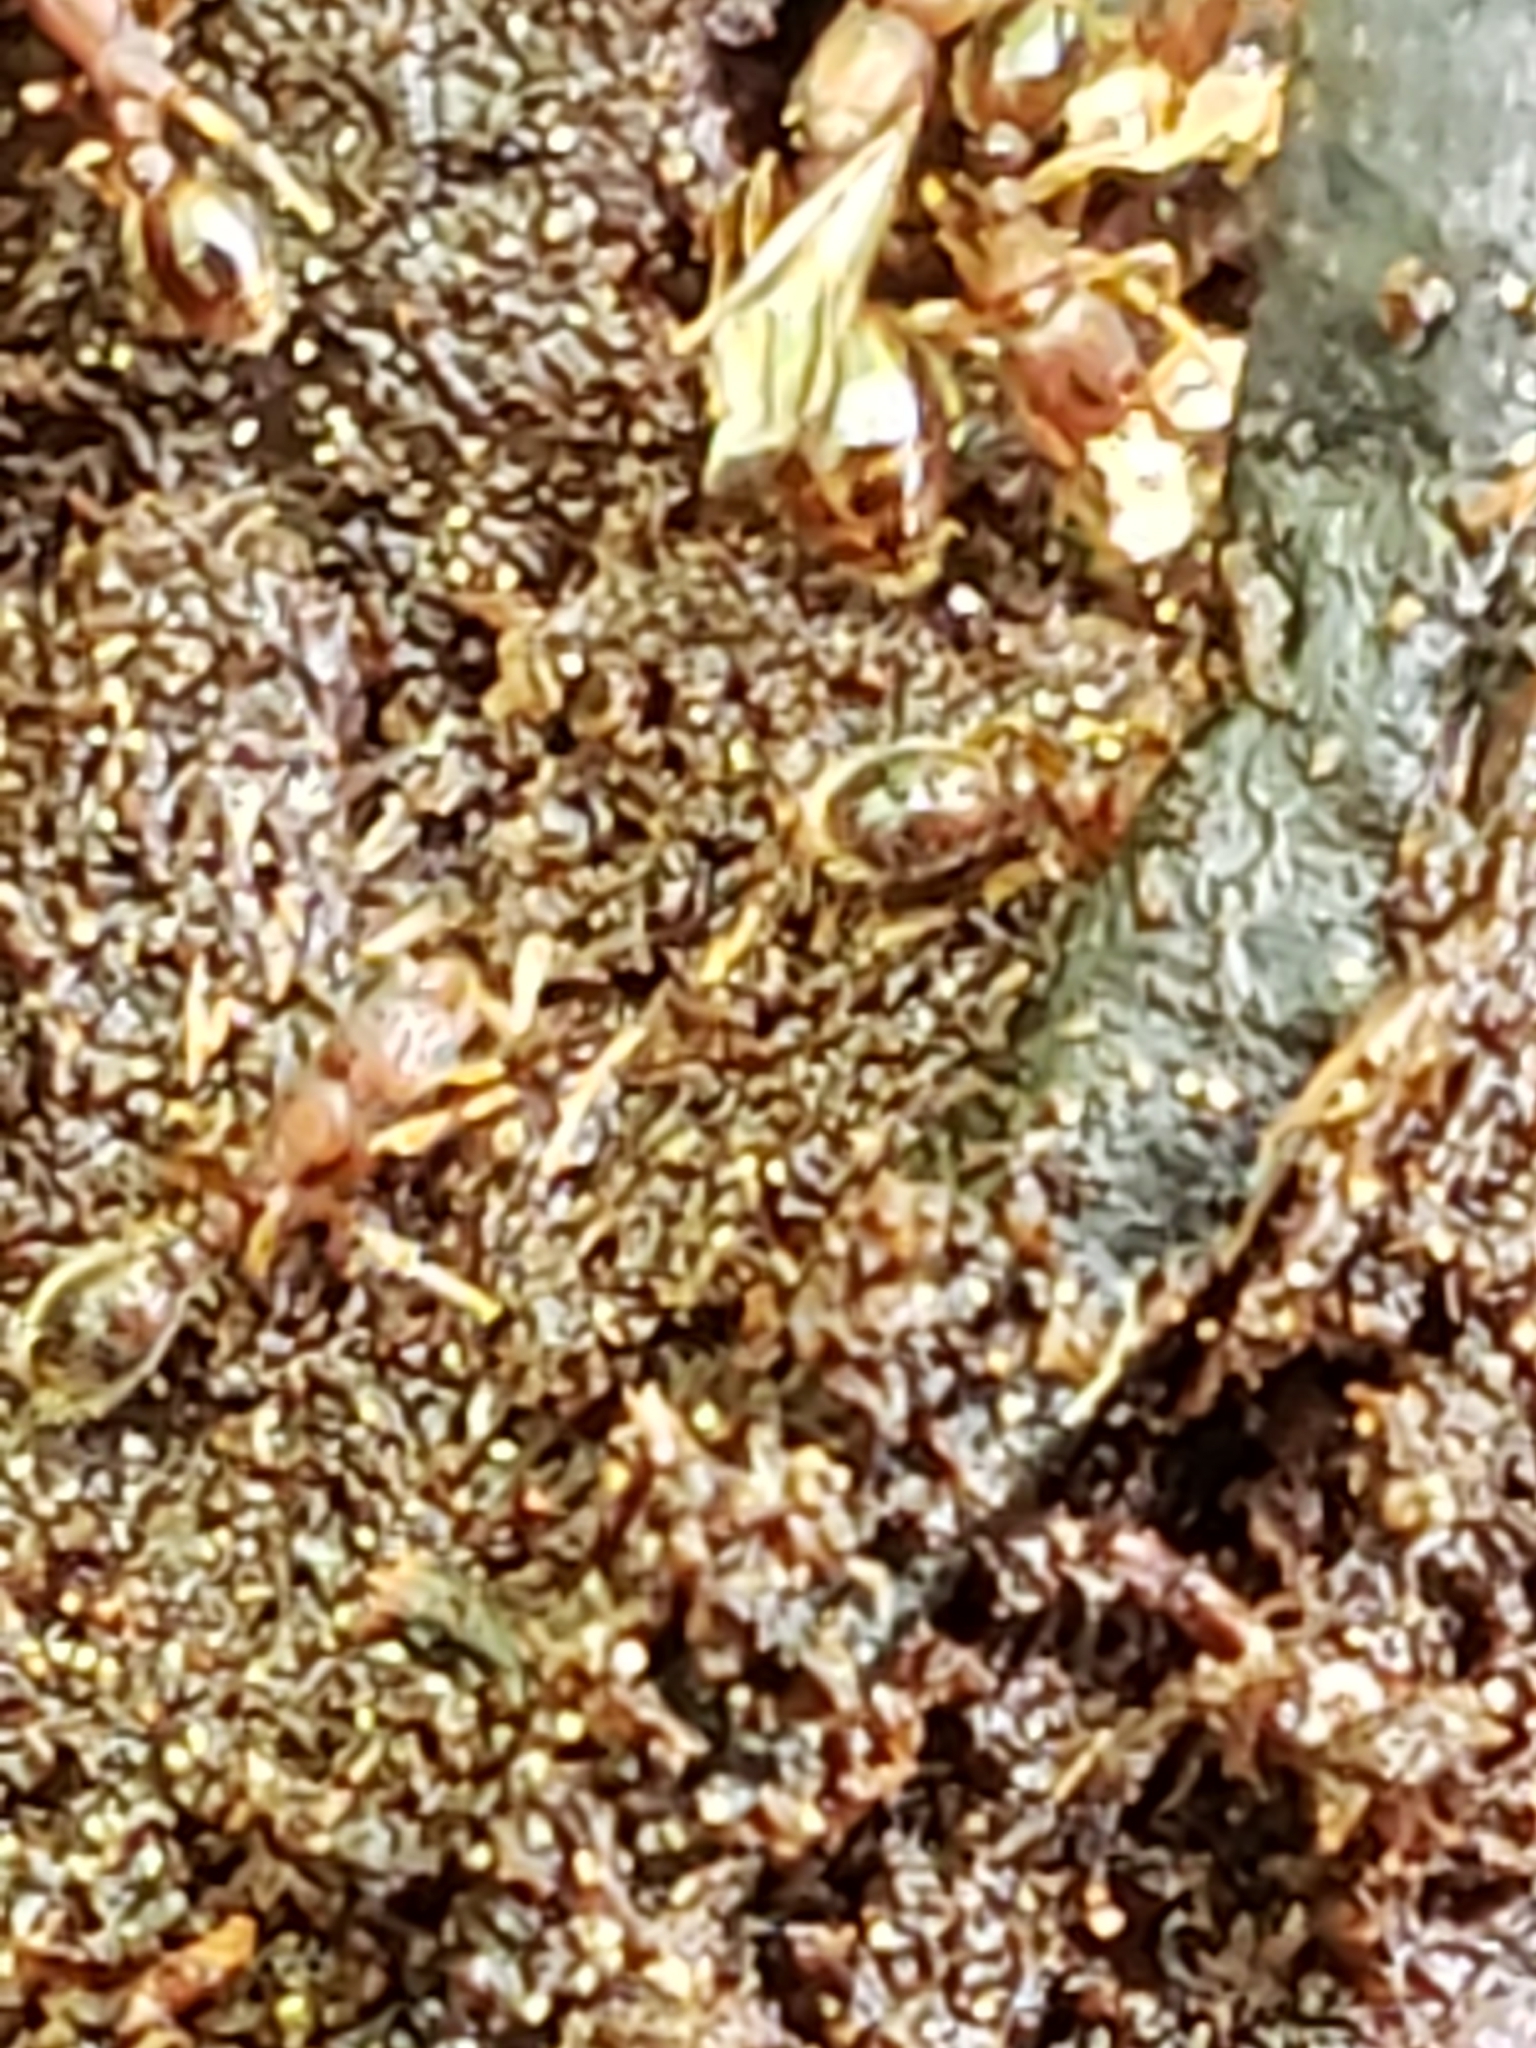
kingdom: Animalia
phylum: Arthropoda
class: Insecta
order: Hymenoptera
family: Formicidae
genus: Vollenhovia
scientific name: Vollenhovia emeryi
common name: Ant
